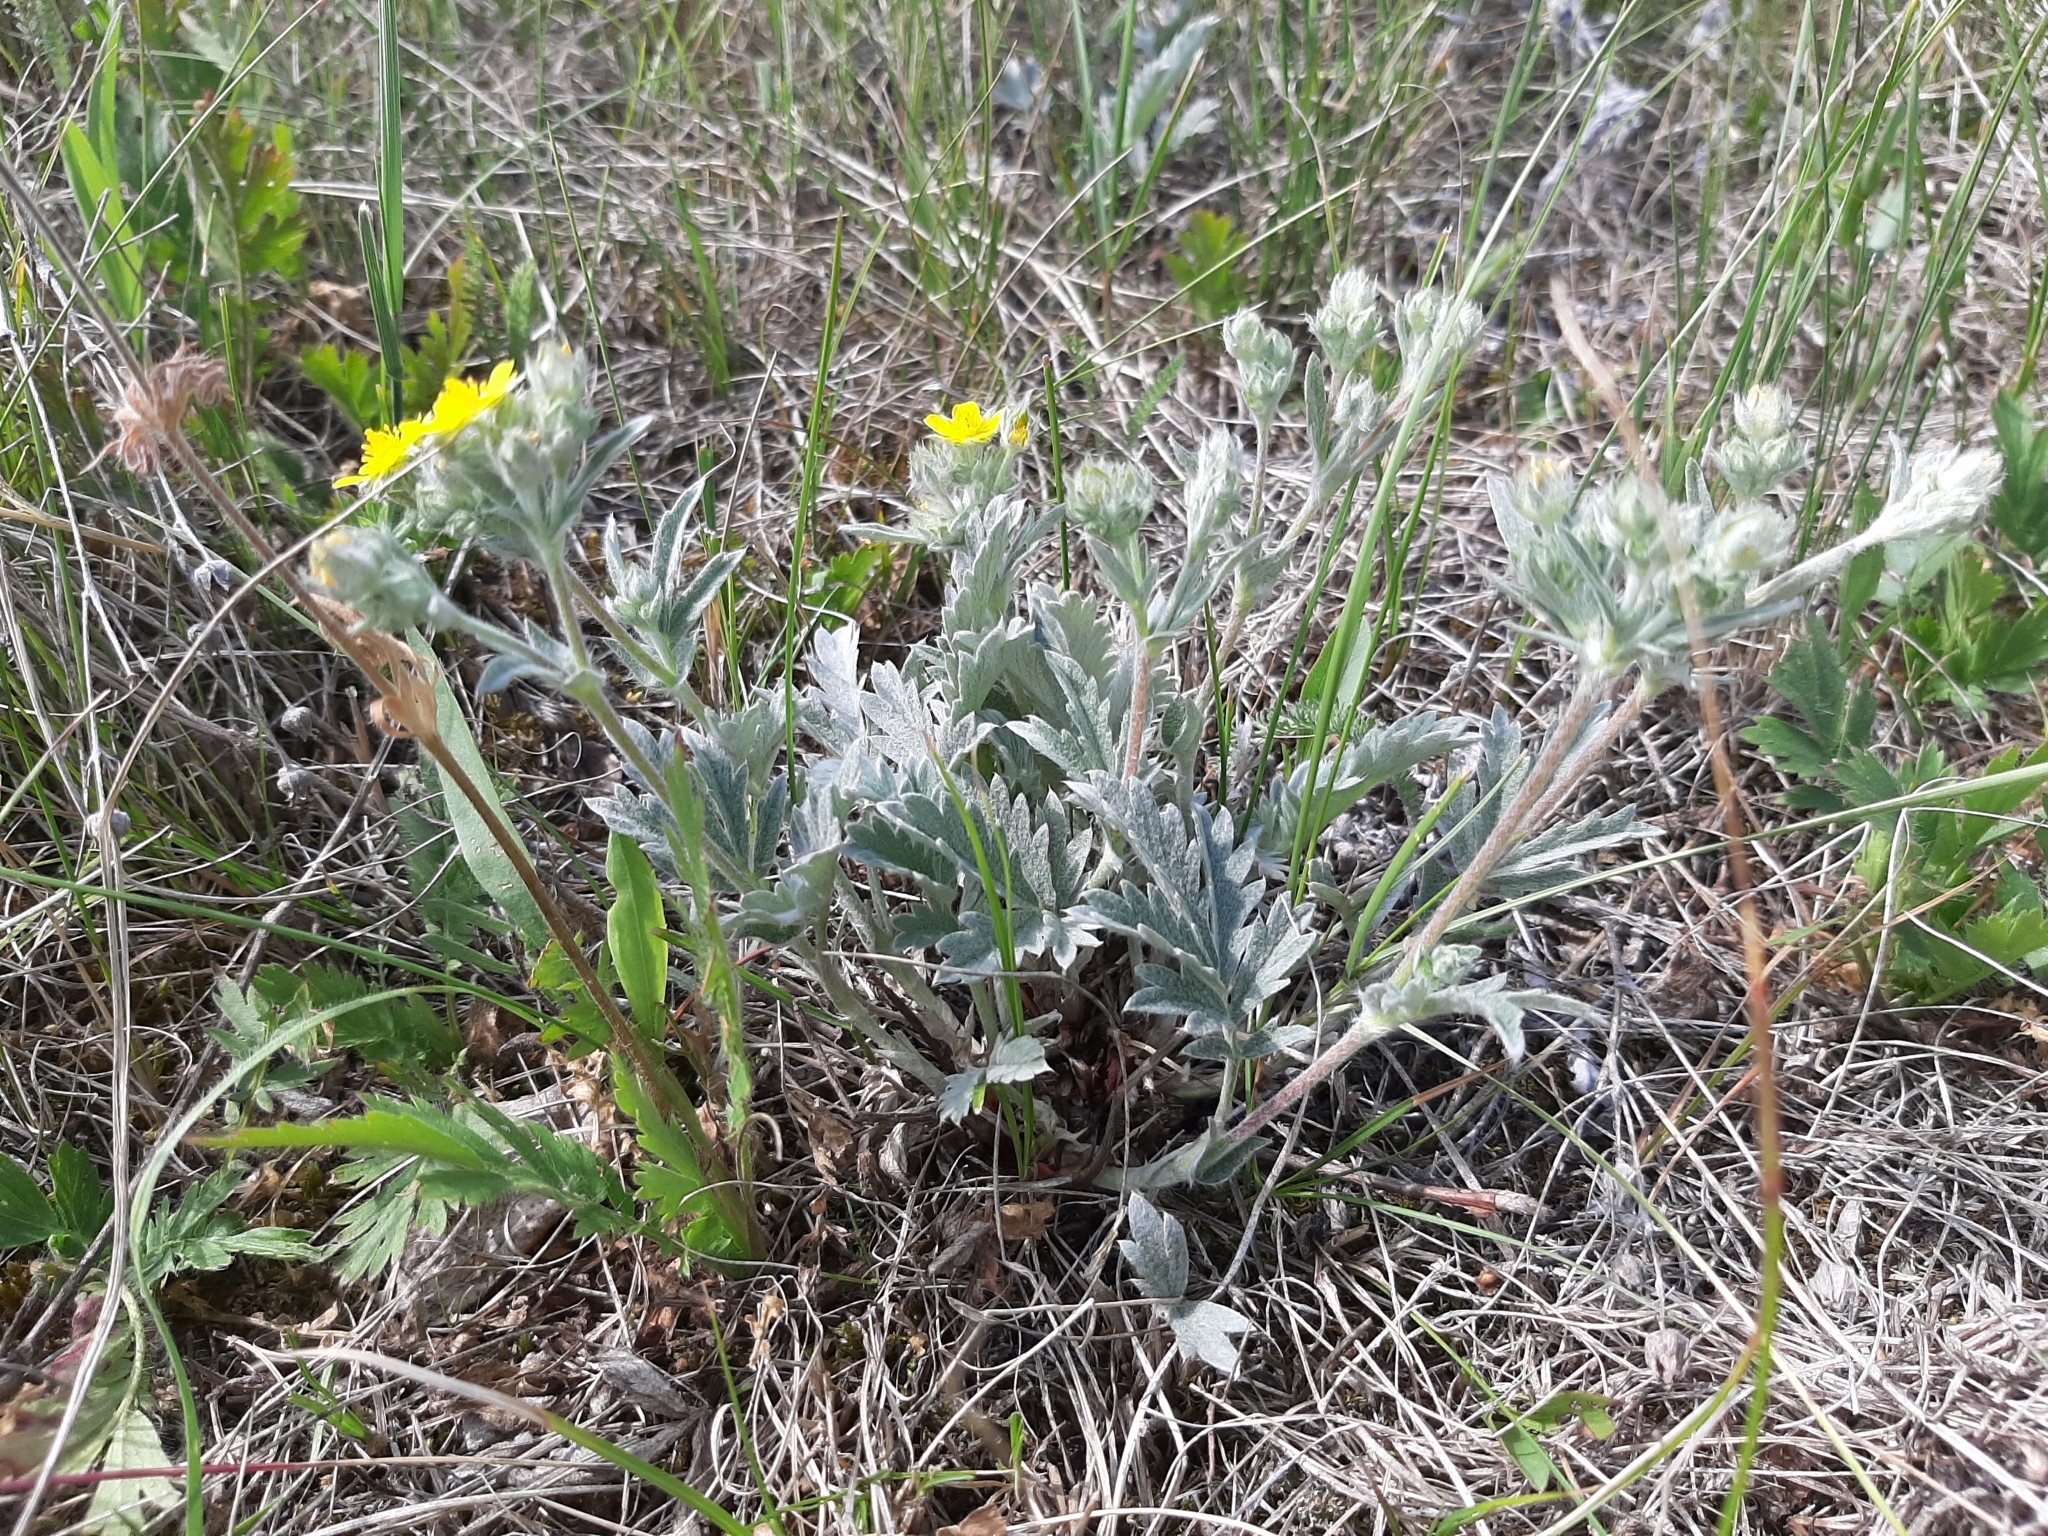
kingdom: Plantae
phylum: Tracheophyta
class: Magnoliopsida
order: Rosales
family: Rosaceae
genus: Potentilla
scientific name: Potentilla effusa
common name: Branched cinquefoil
